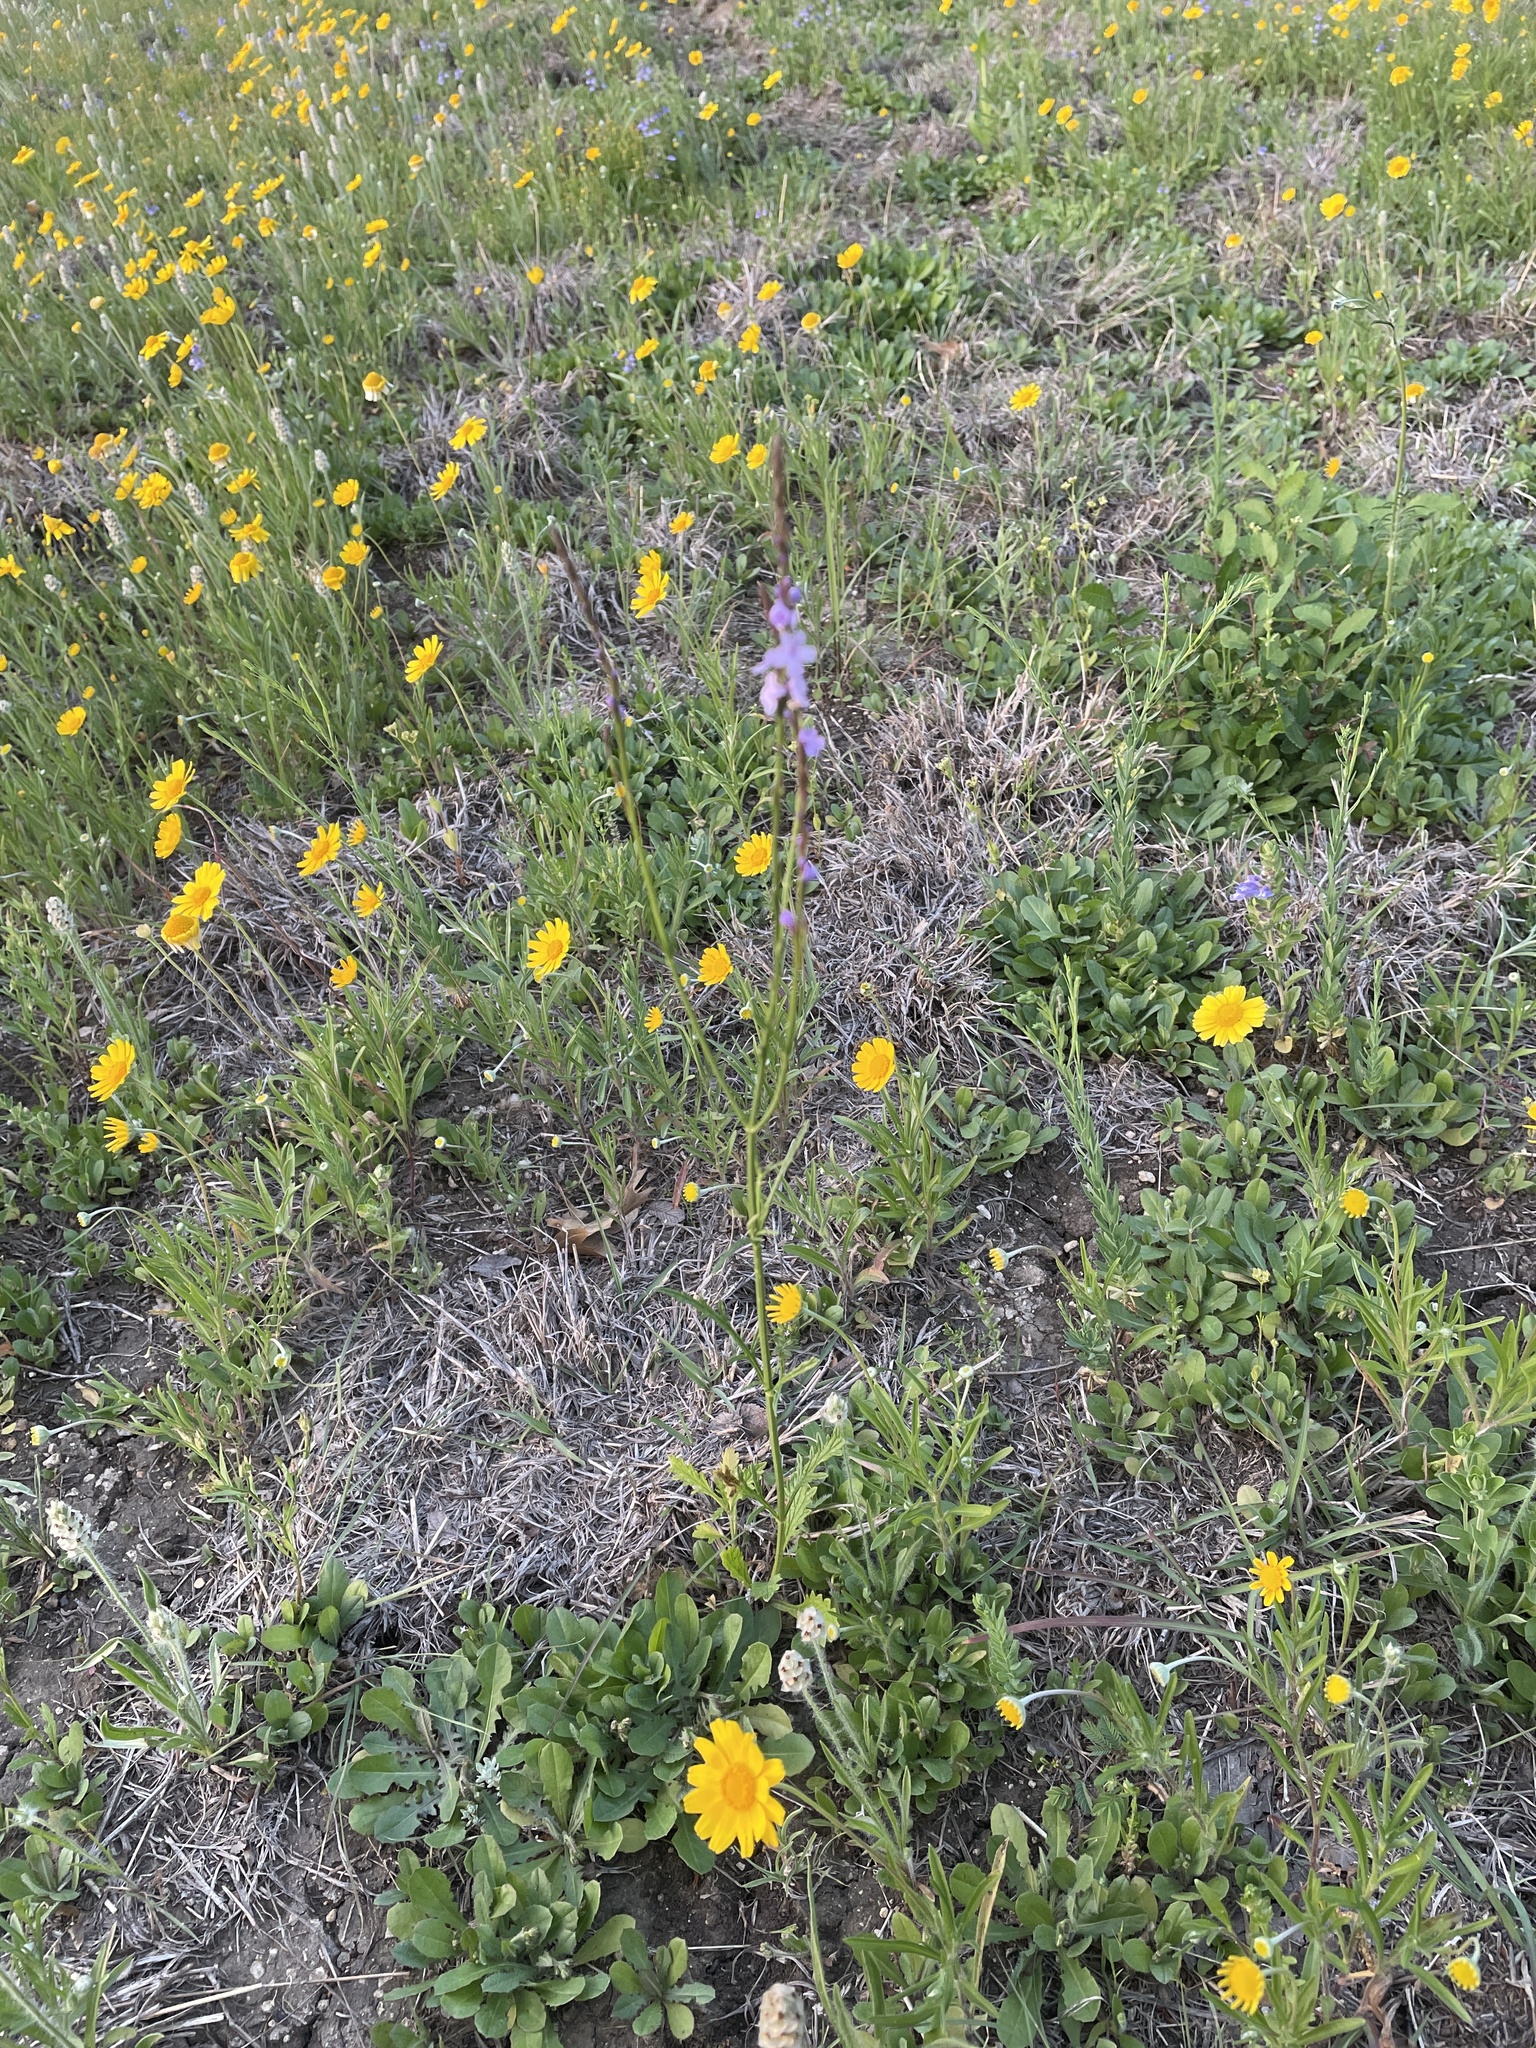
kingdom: Plantae
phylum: Tracheophyta
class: Magnoliopsida
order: Lamiales
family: Verbenaceae
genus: Verbena
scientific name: Verbena halei
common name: Texas vervain
